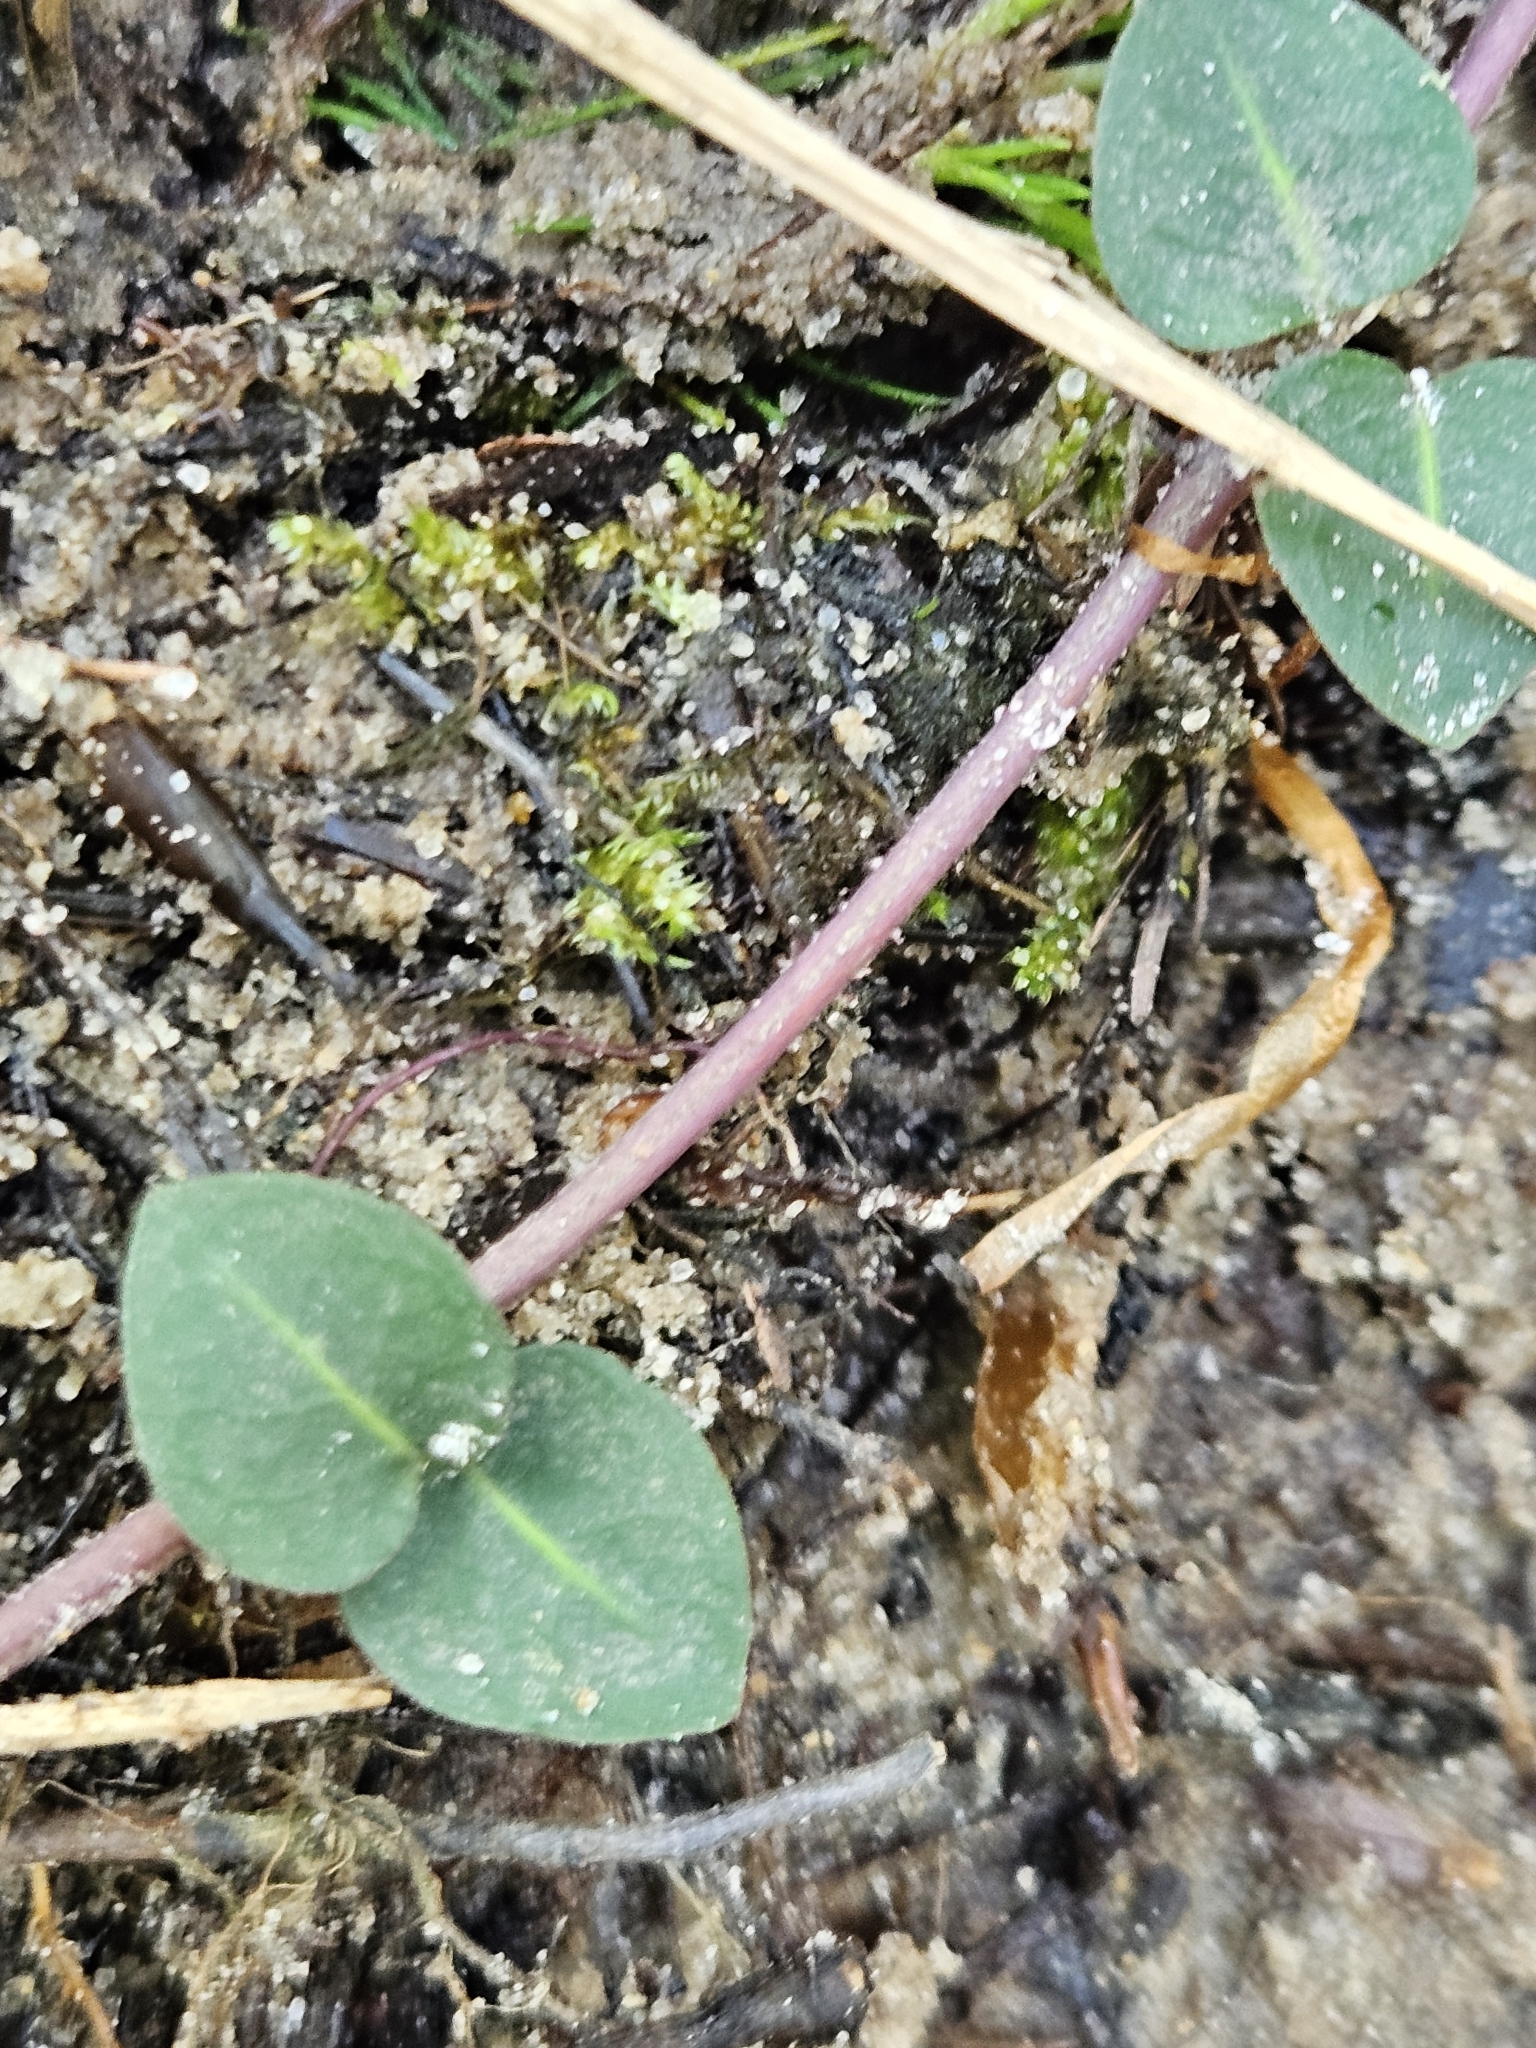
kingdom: Plantae
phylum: Tracheophyta
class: Magnoliopsida
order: Gentianales
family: Rubiaceae
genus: Mitchella
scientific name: Mitchella repens
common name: Partridge-berry
